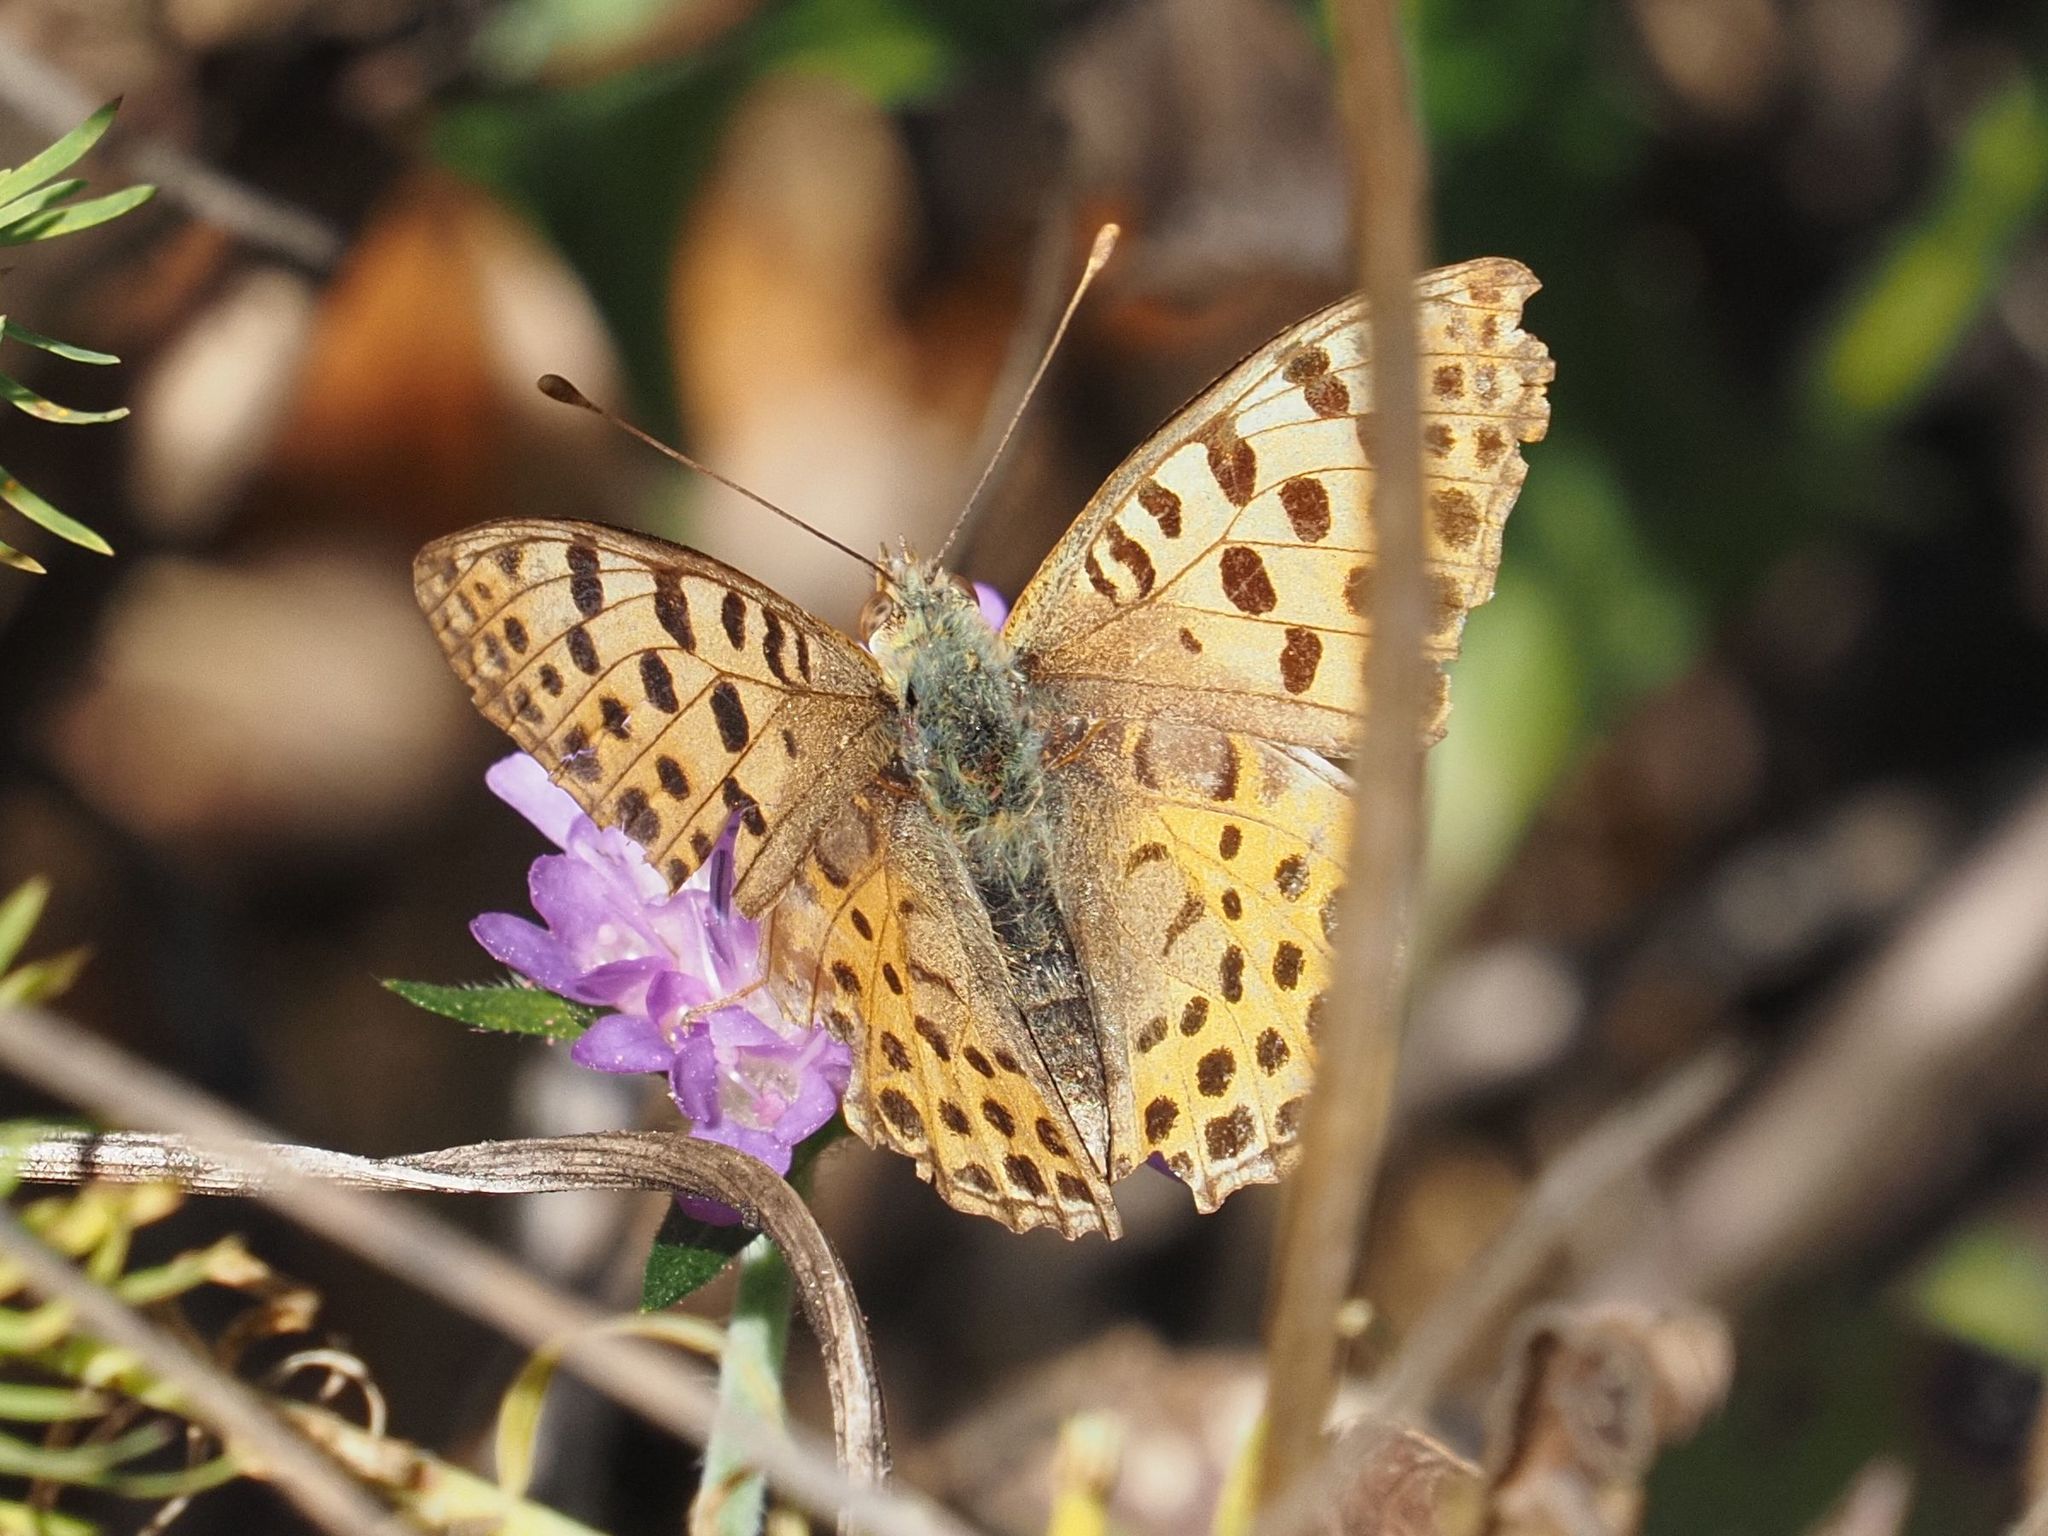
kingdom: Animalia
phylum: Arthropoda
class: Insecta
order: Lepidoptera
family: Nymphalidae
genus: Issoria
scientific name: Issoria lathonia
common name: Queen of spain fritillary
